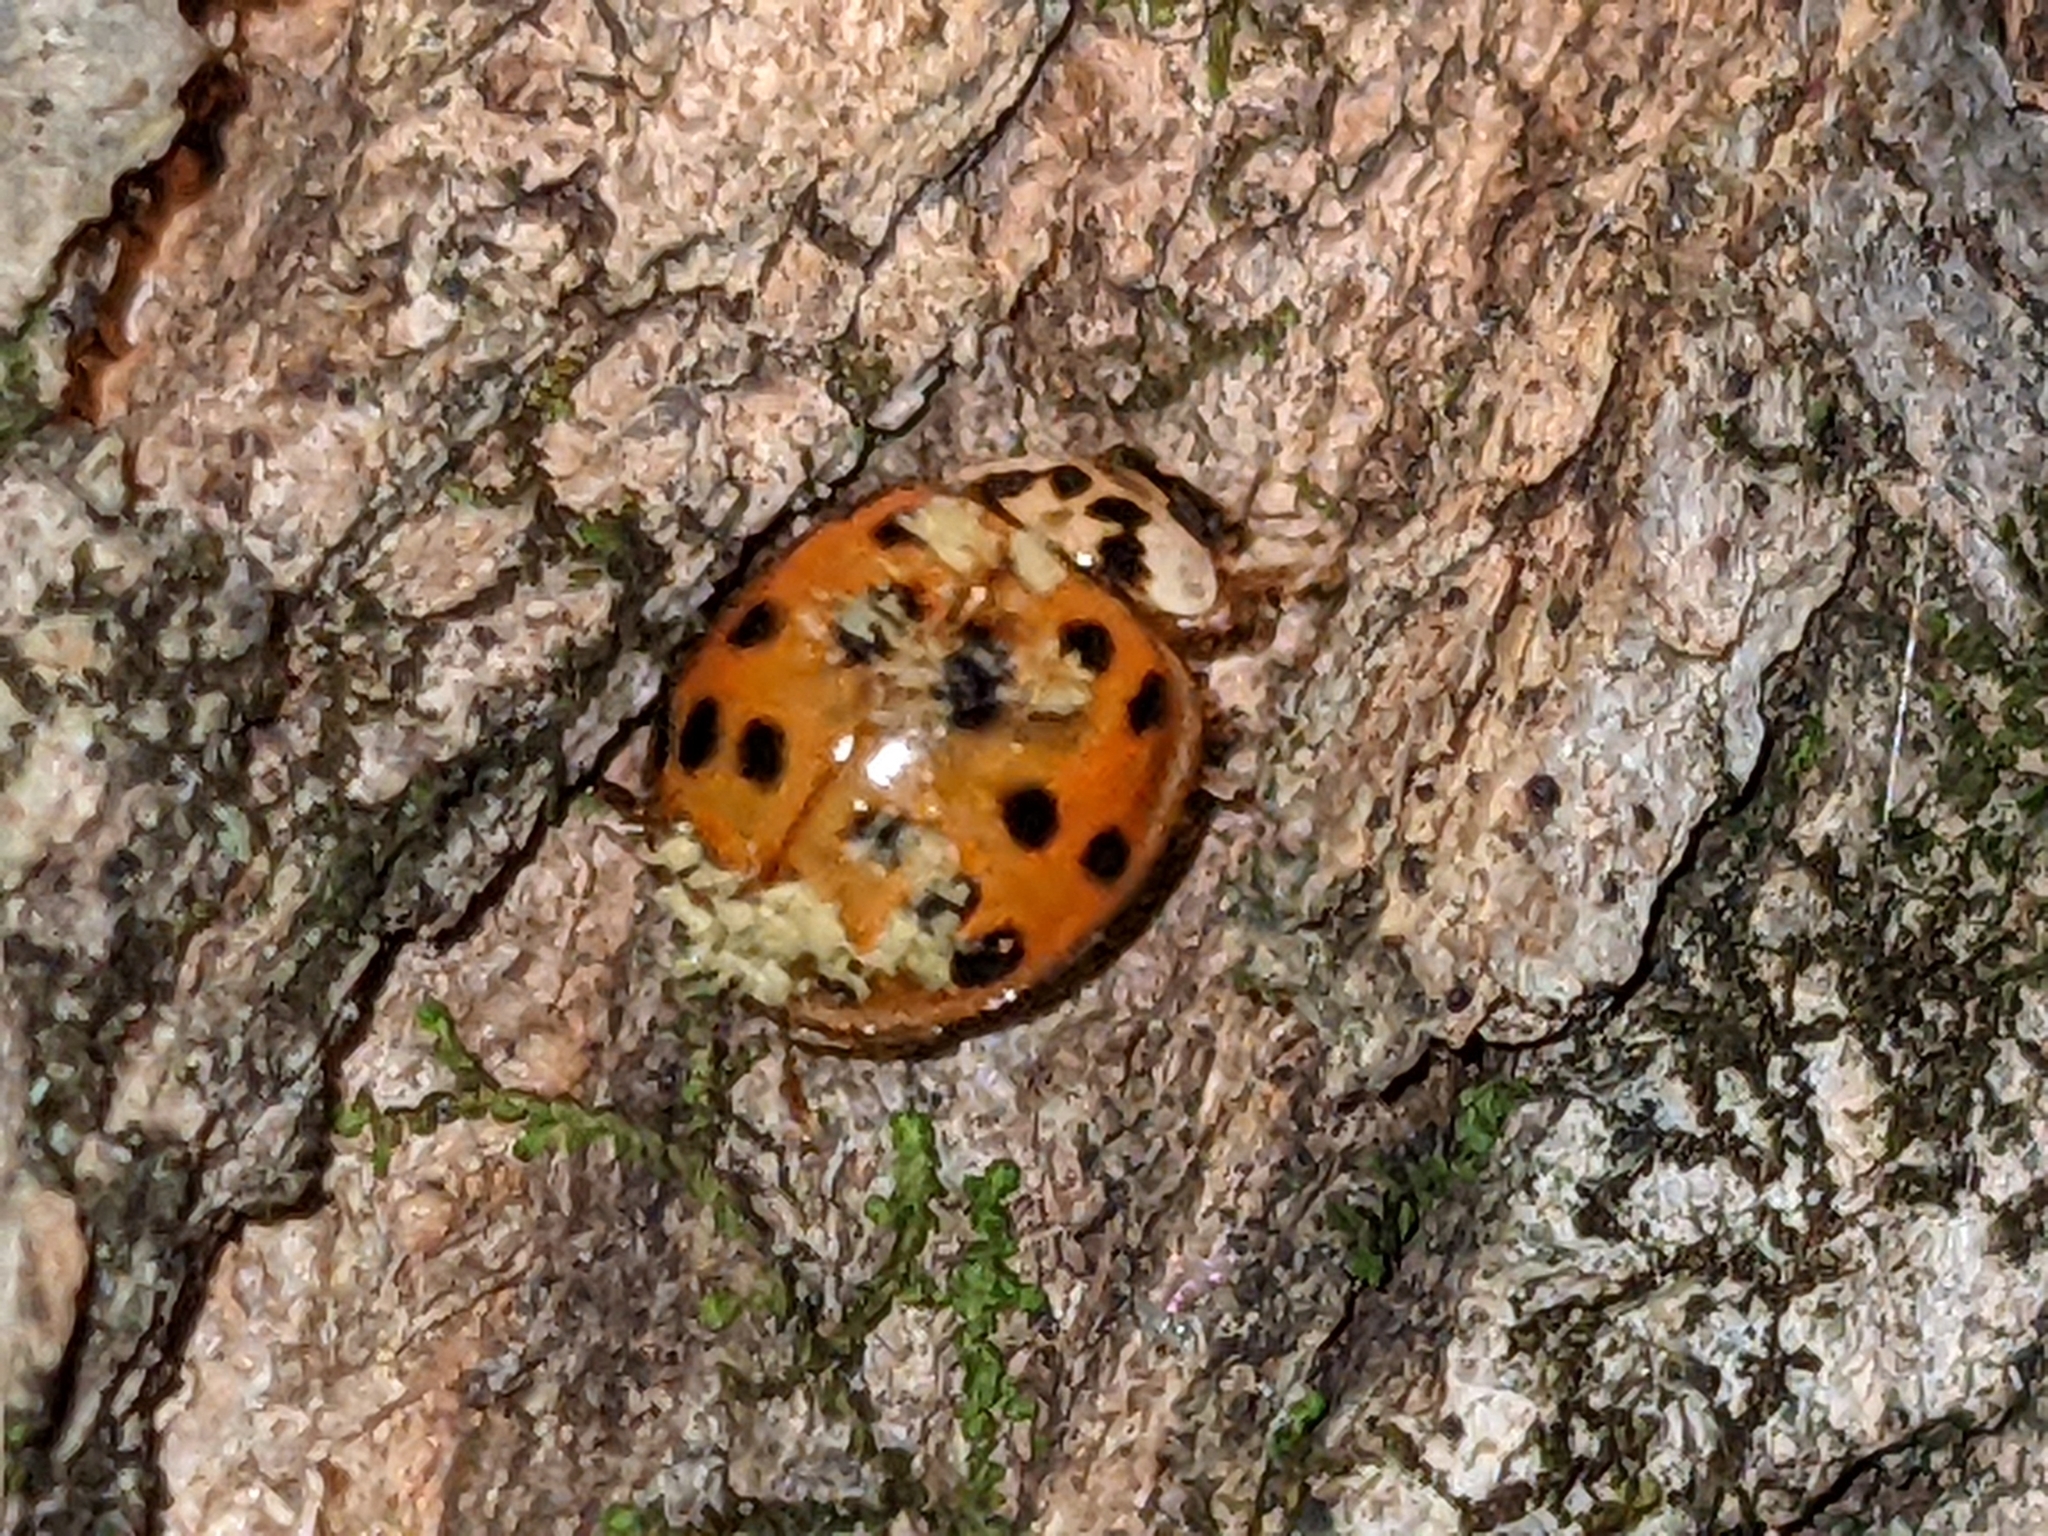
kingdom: Fungi
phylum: Ascomycota
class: Laboulbeniomycetes
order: Laboulbeniales
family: Laboulbeniaceae
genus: Hesperomyces
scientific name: Hesperomyces harmoniae
